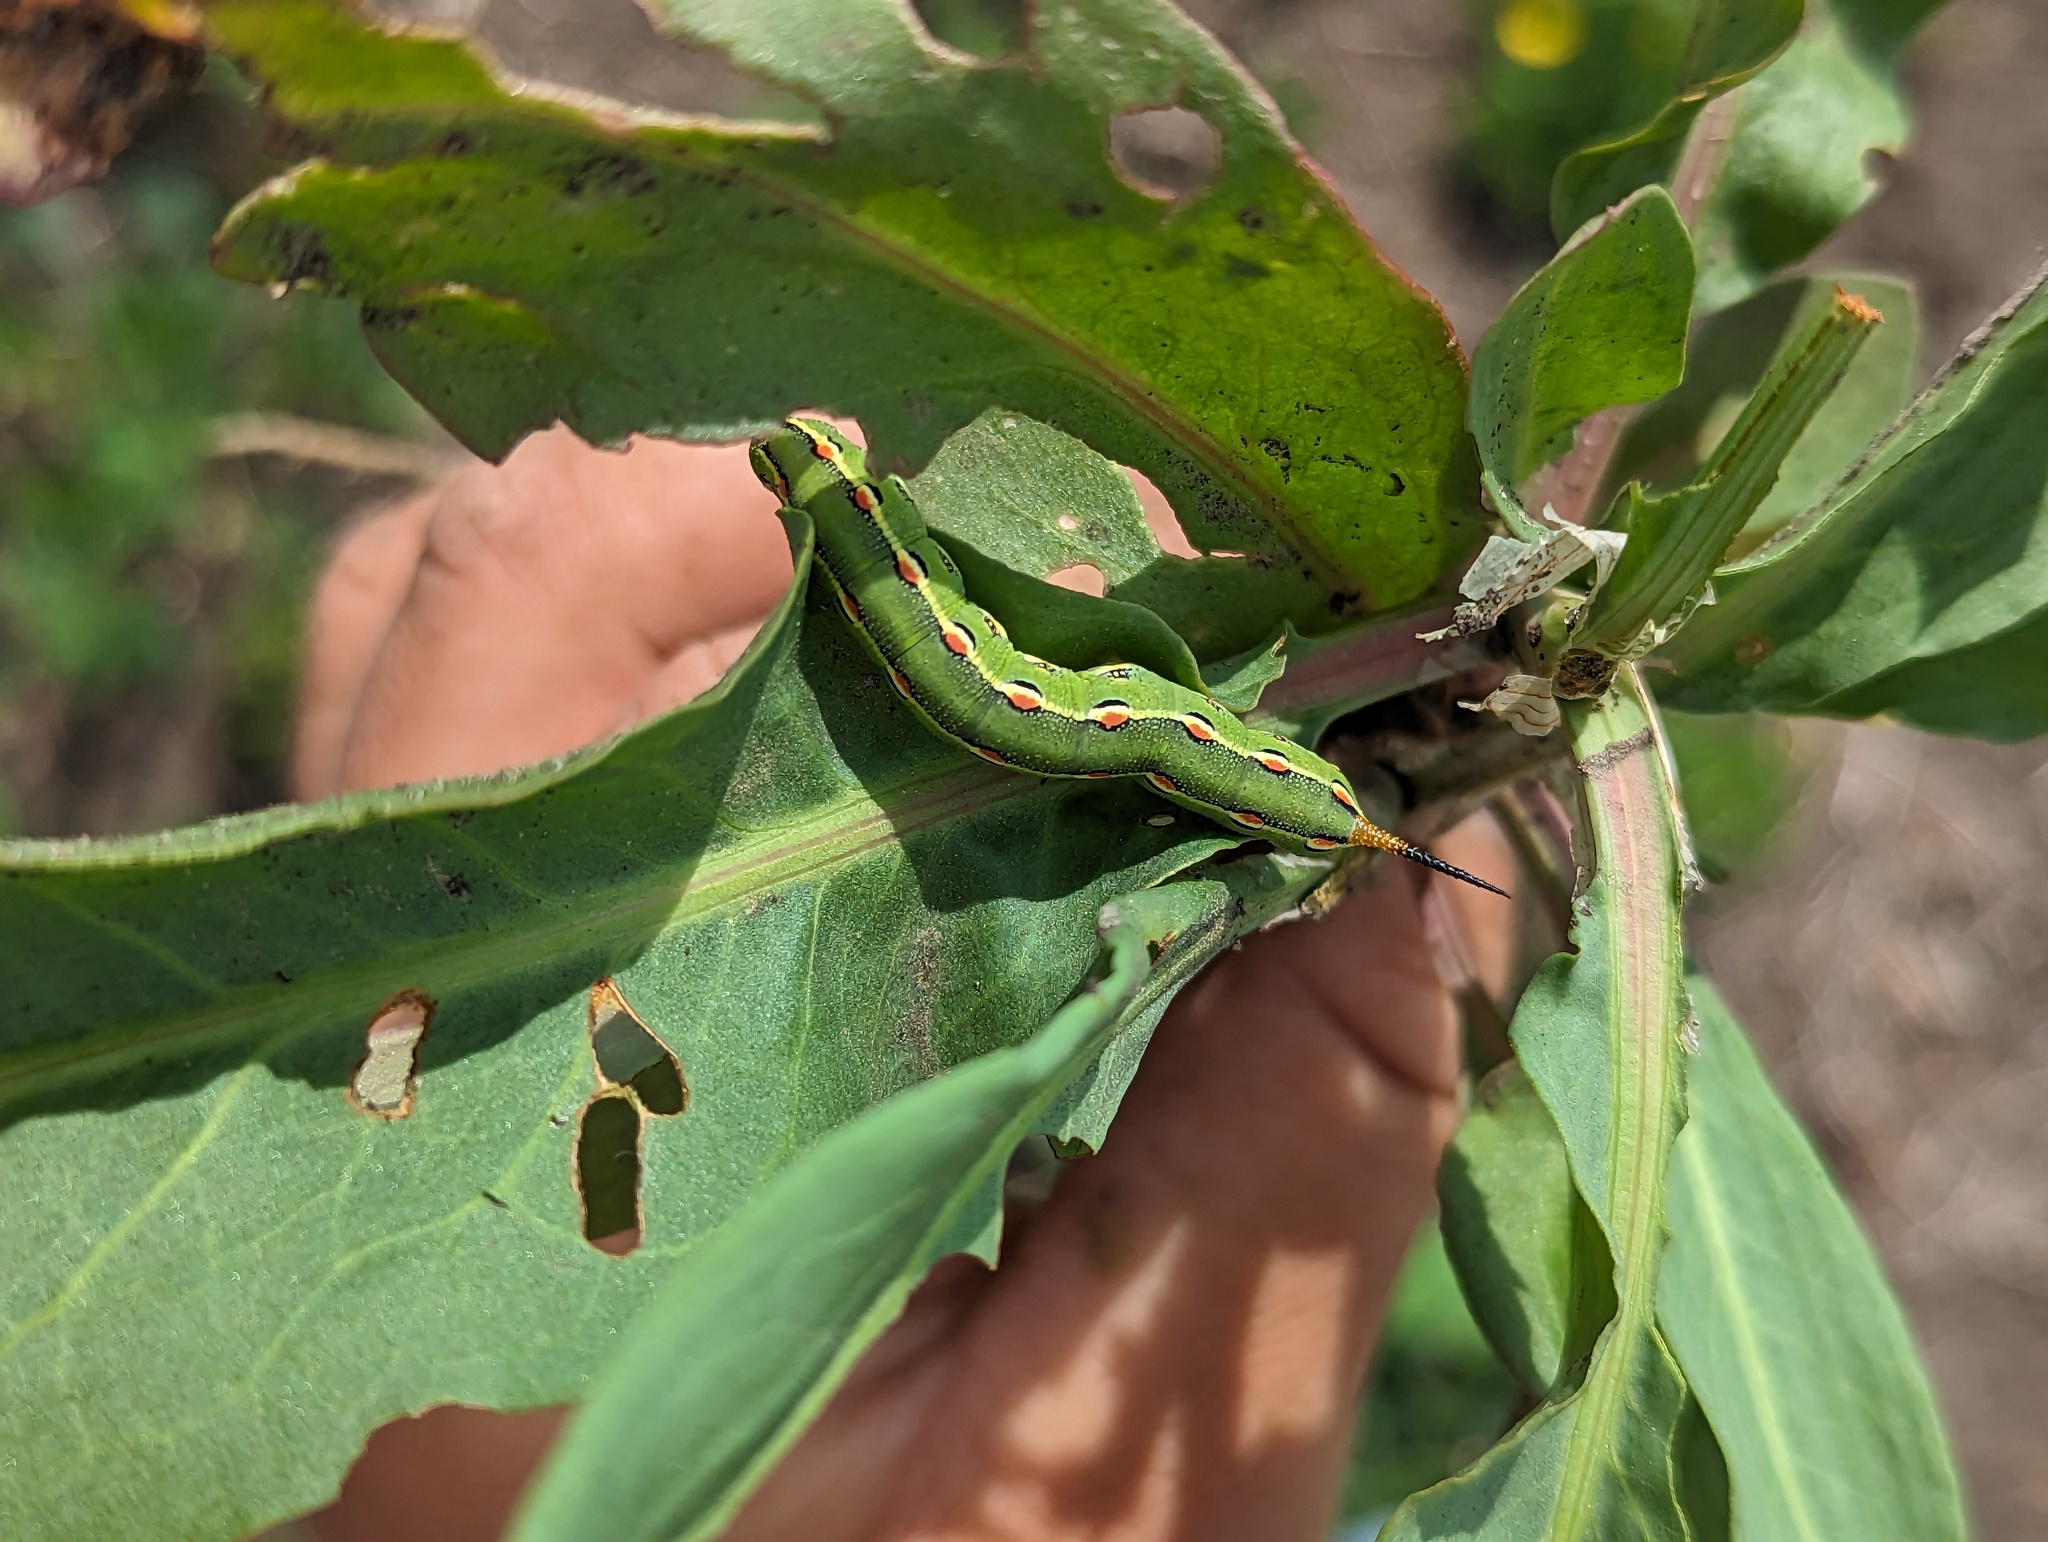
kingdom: Animalia
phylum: Arthropoda
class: Insecta
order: Lepidoptera
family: Sphingidae
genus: Hyles
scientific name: Hyles lineata
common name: White-lined sphinx
